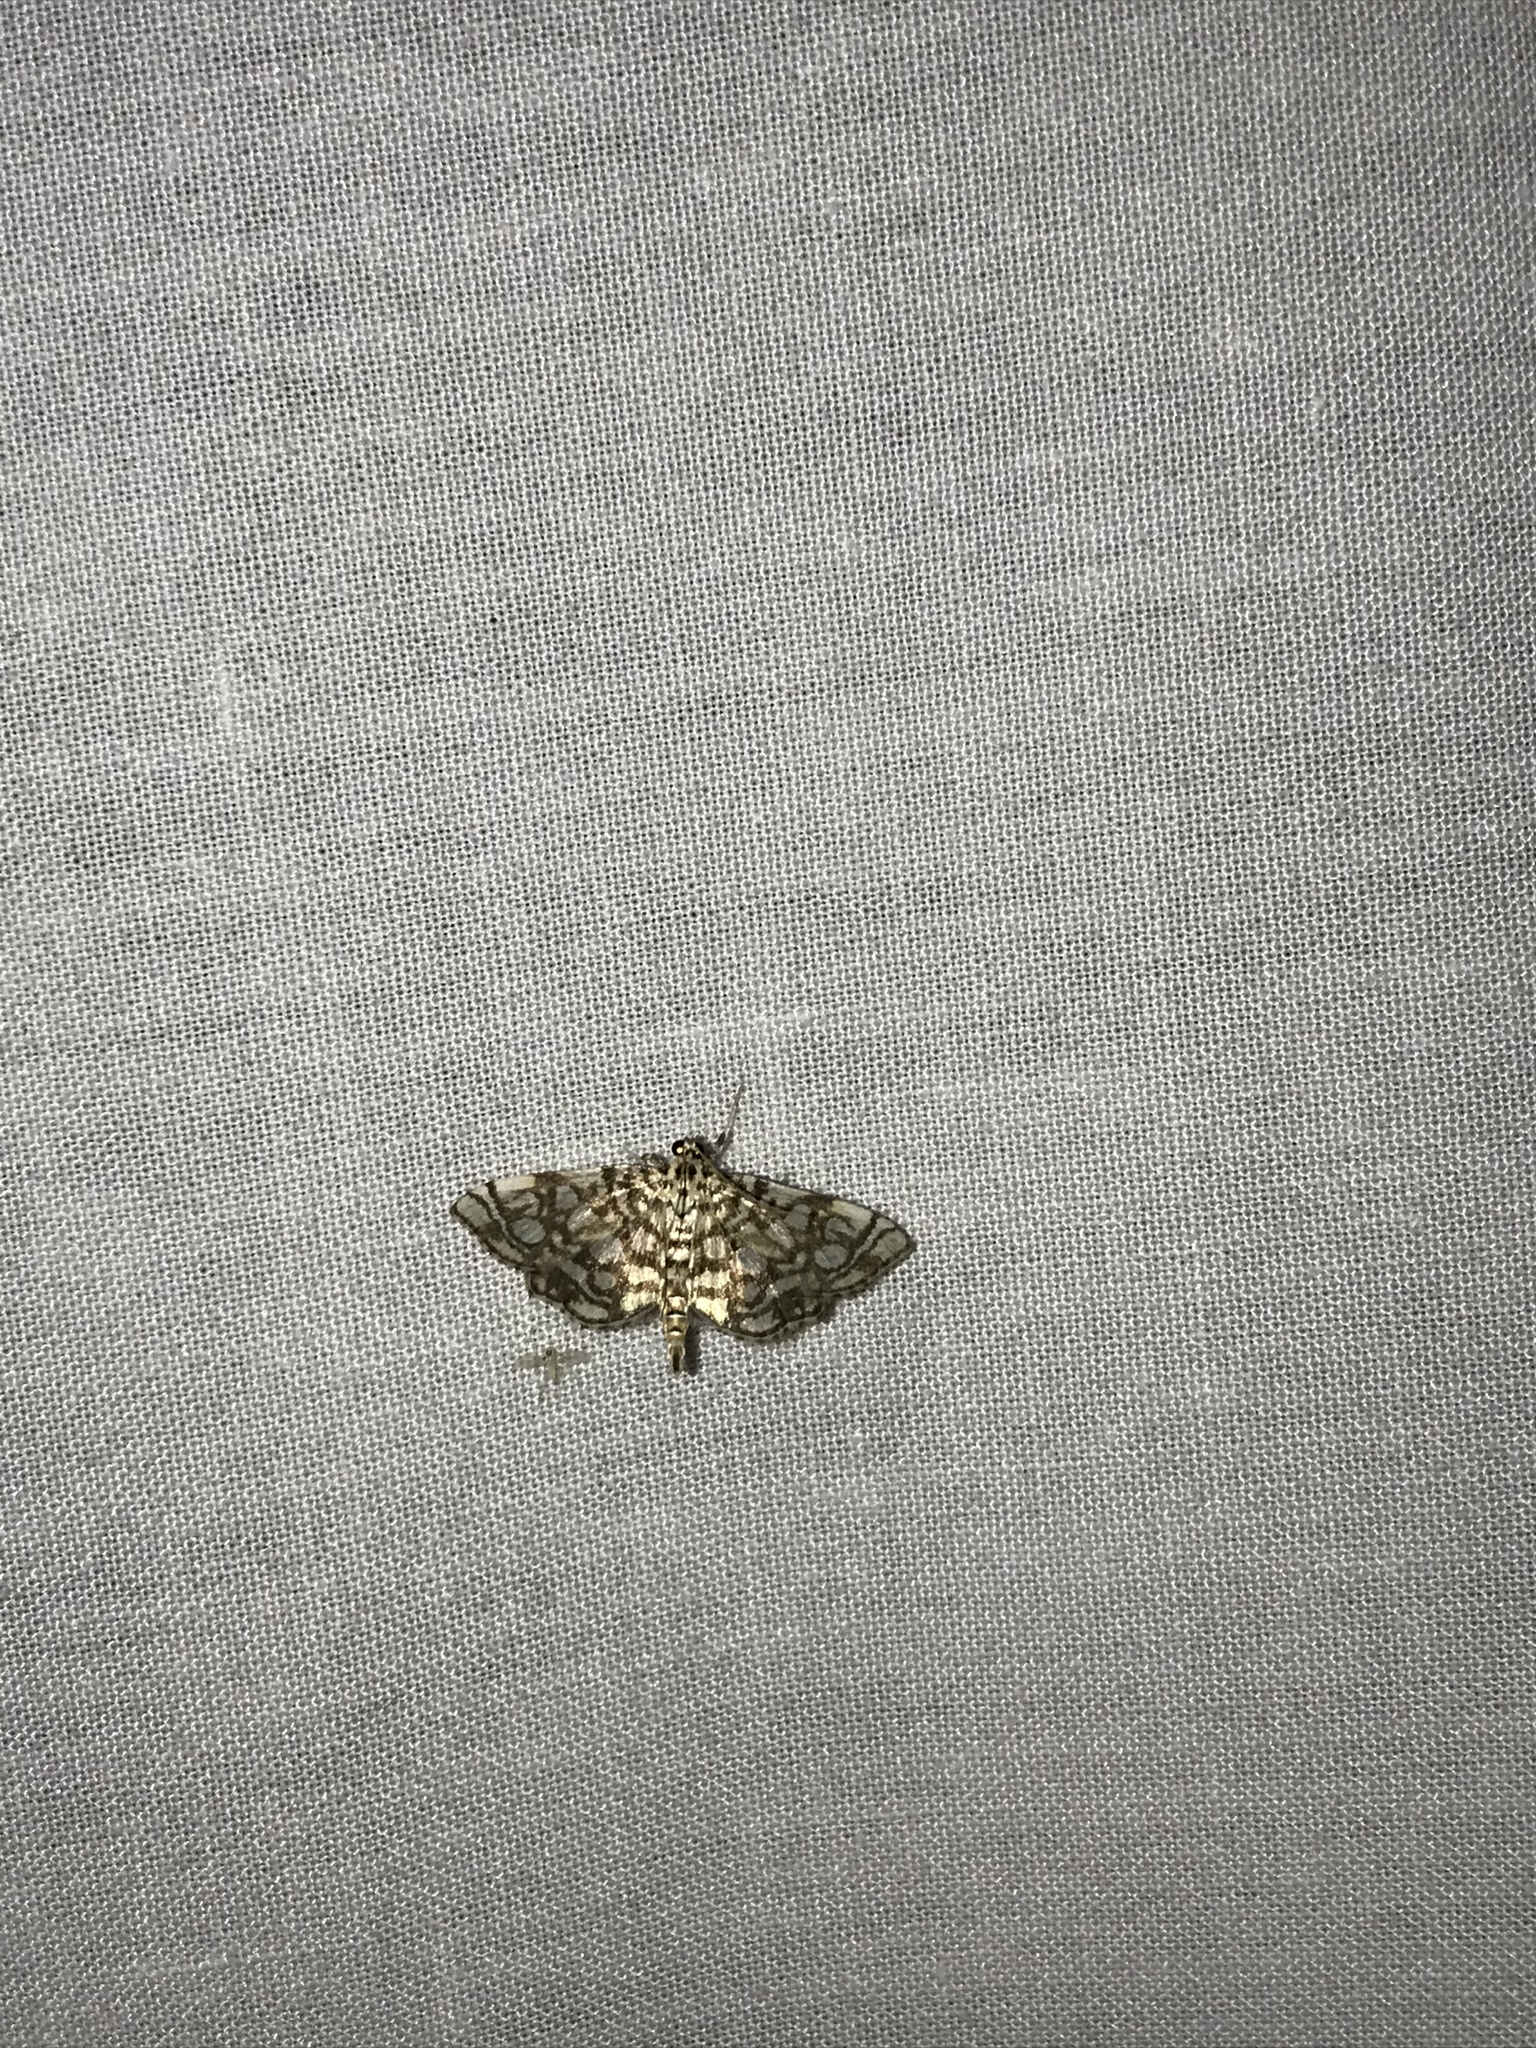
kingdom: Animalia
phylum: Arthropoda
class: Insecta
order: Lepidoptera
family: Crambidae
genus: Lygropia
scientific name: Lygropia rivulalis
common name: Bog lygropia moth
